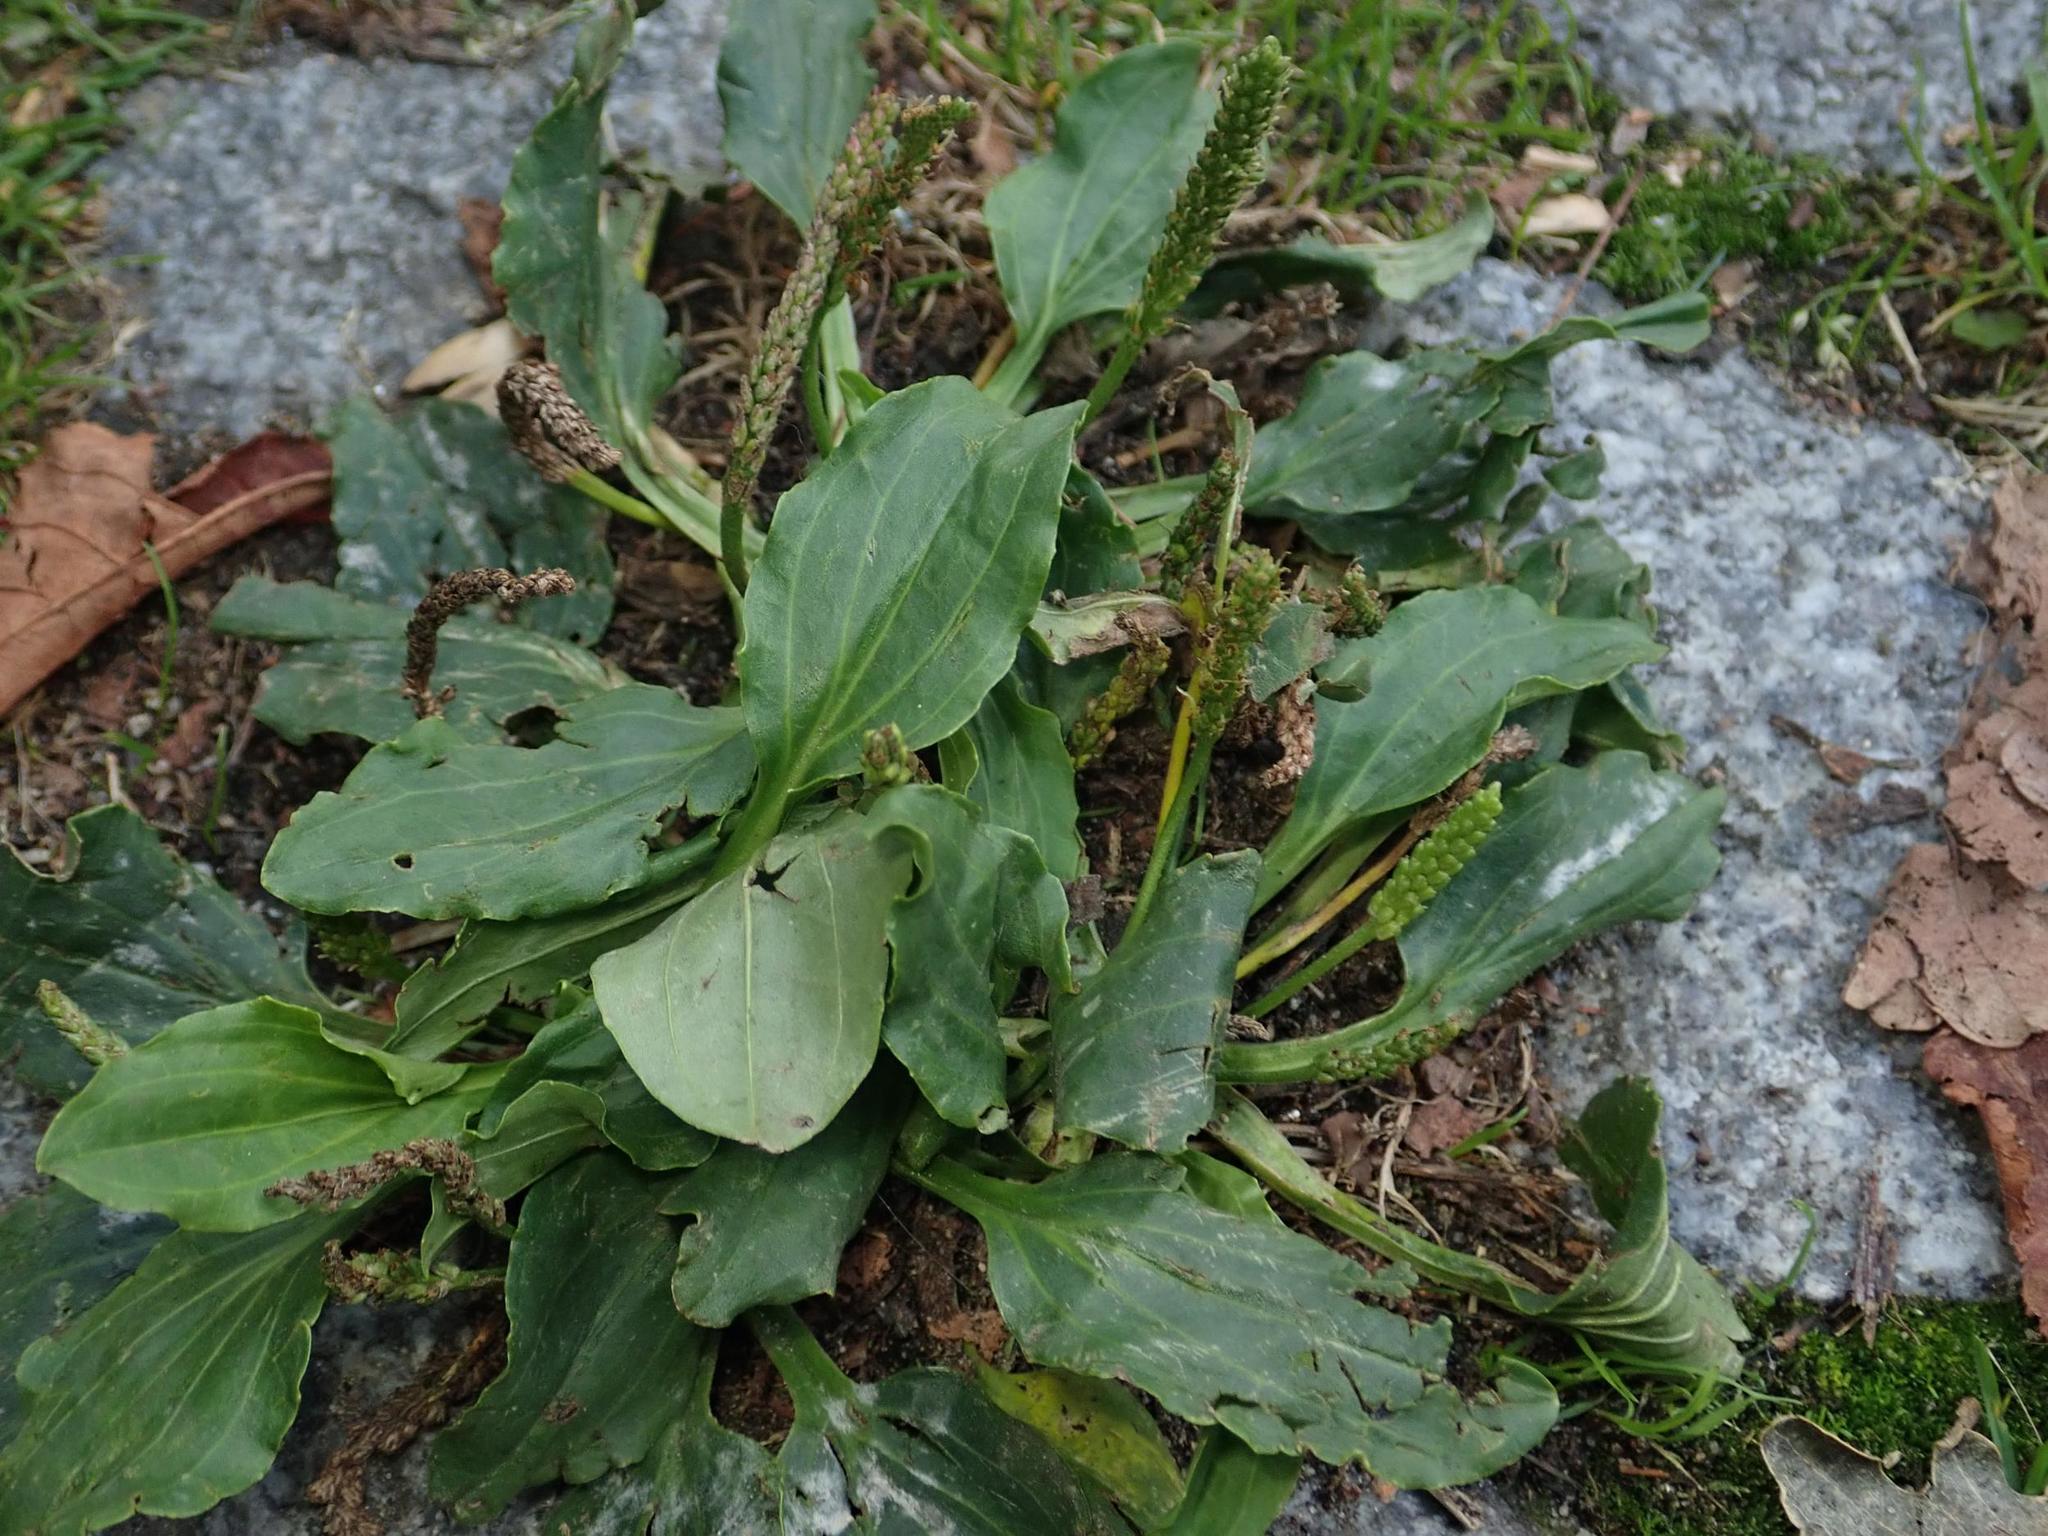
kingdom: Plantae
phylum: Tracheophyta
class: Magnoliopsida
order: Lamiales
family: Plantaginaceae
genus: Plantago
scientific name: Plantago major
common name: Common plantain
